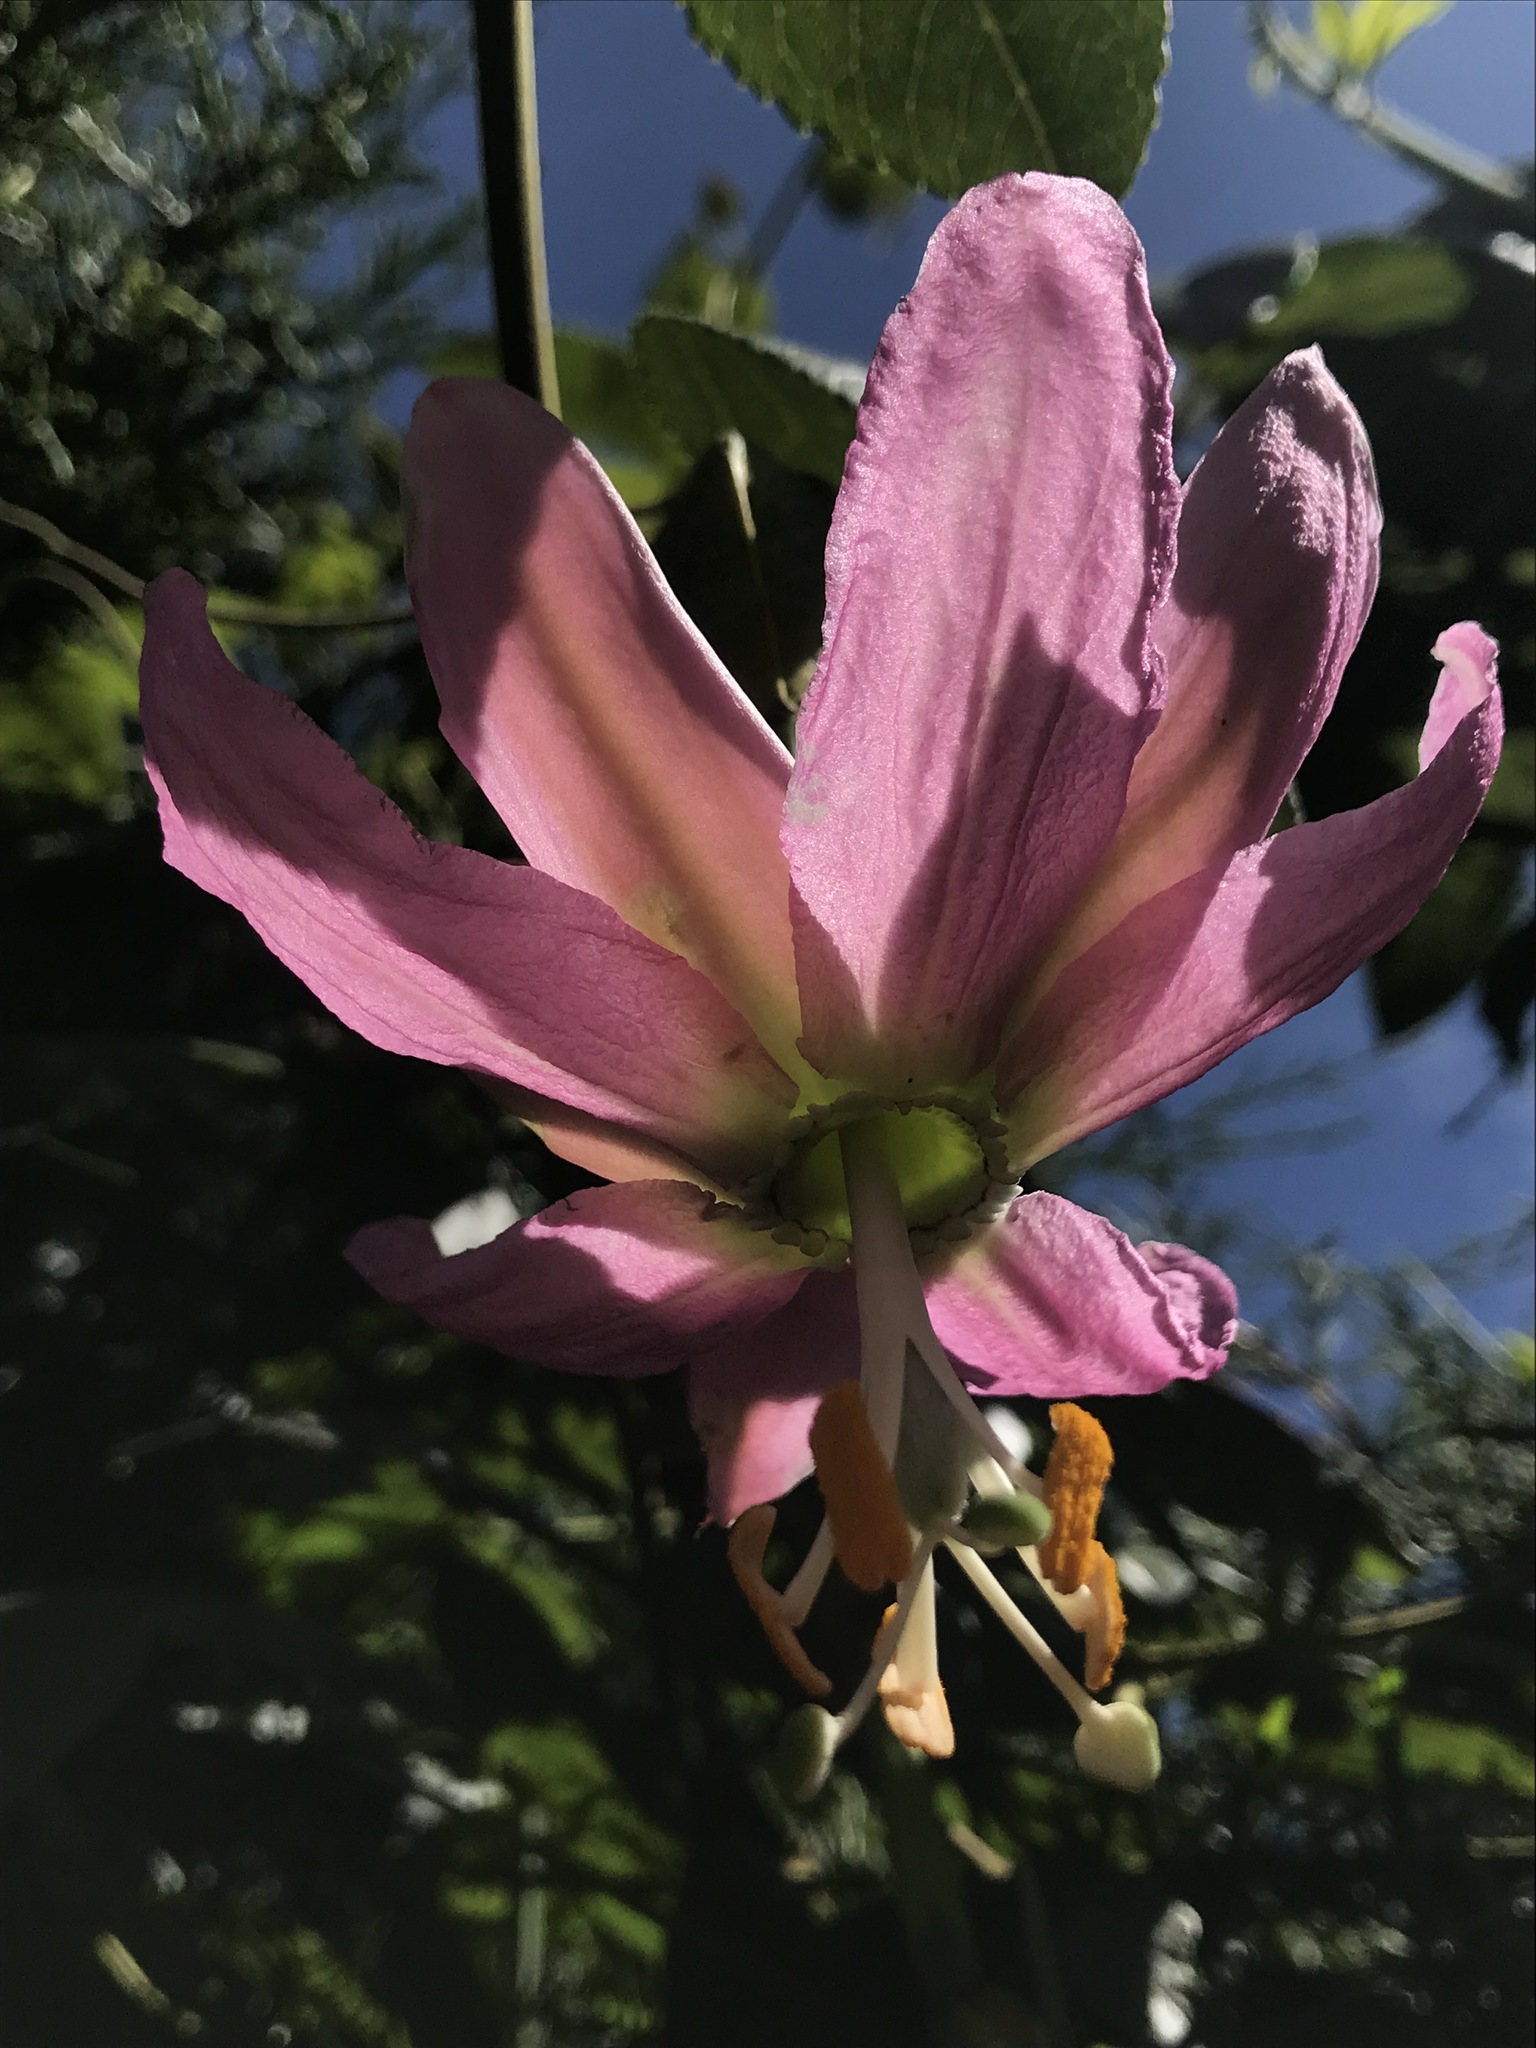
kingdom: Plantae
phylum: Tracheophyta
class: Magnoliopsida
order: Malpighiales
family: Passifloraceae
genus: Passiflora
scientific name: Passiflora tarminiana
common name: Banana poka
